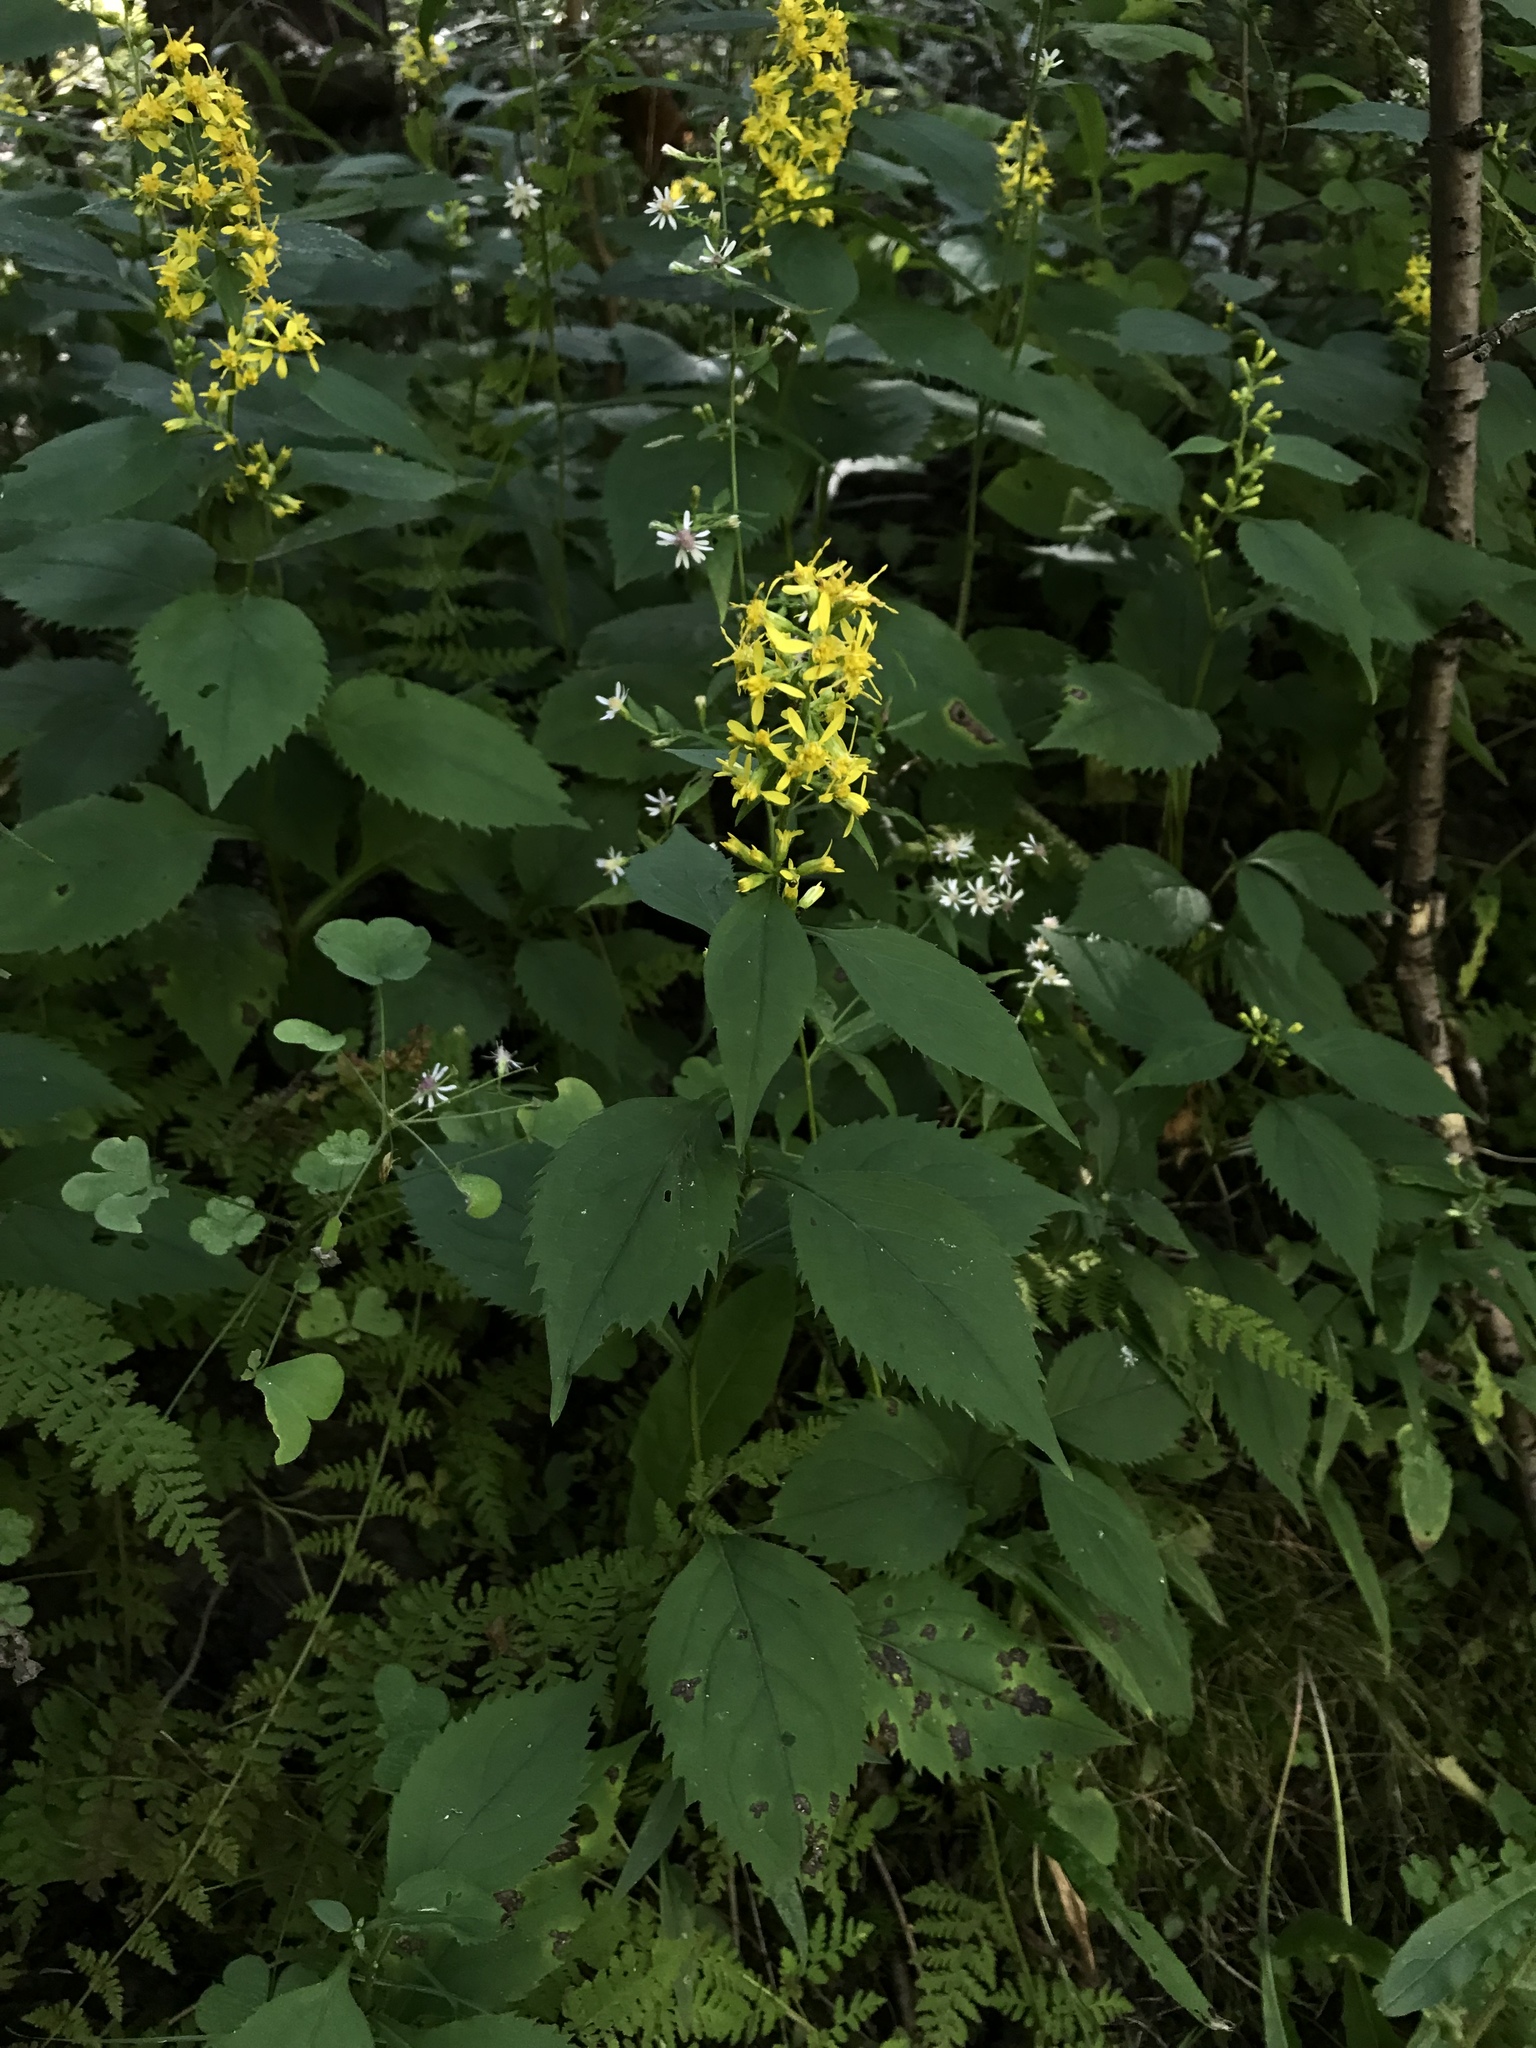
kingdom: Plantae
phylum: Tracheophyta
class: Magnoliopsida
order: Asterales
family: Asteraceae
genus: Solidago
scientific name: Solidago flexicaulis
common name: Zig-zag goldenrod
